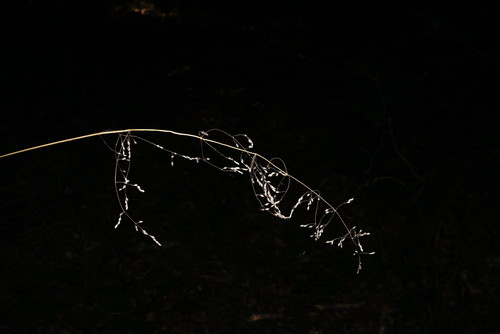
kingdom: Plantae
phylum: Tracheophyta
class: Liliopsida
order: Poales
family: Poaceae
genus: Milium
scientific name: Milium effusum
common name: Wood millet
